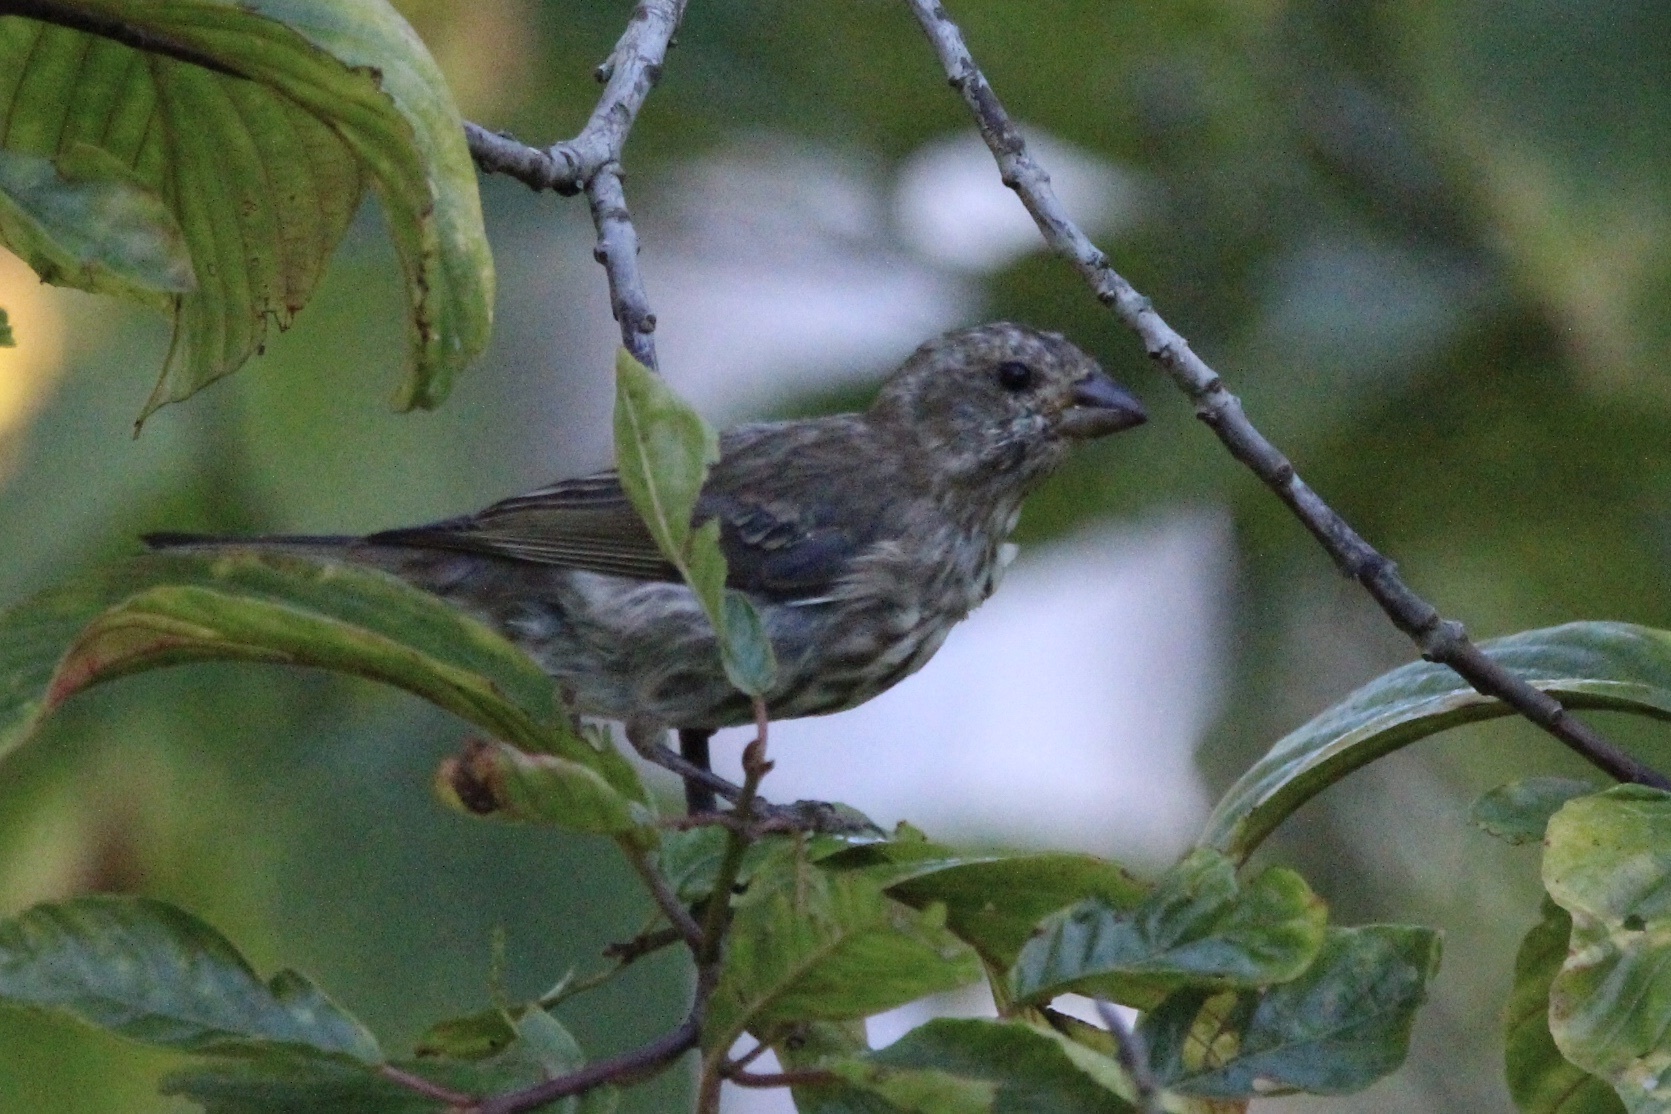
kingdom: Animalia
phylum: Chordata
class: Aves
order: Passeriformes
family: Fringillidae
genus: Haemorhous
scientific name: Haemorhous purpureus
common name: Purple finch
